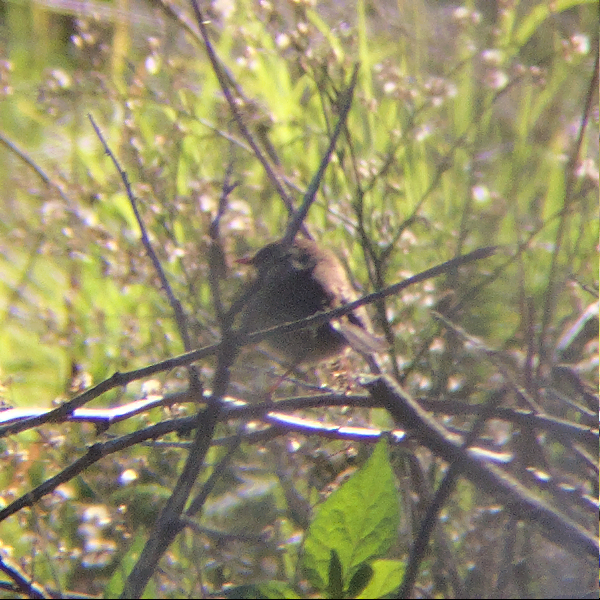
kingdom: Animalia
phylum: Chordata
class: Aves
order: Passeriformes
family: Maluridae
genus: Malurus
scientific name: Malurus cyaneus
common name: Superb fairywren
